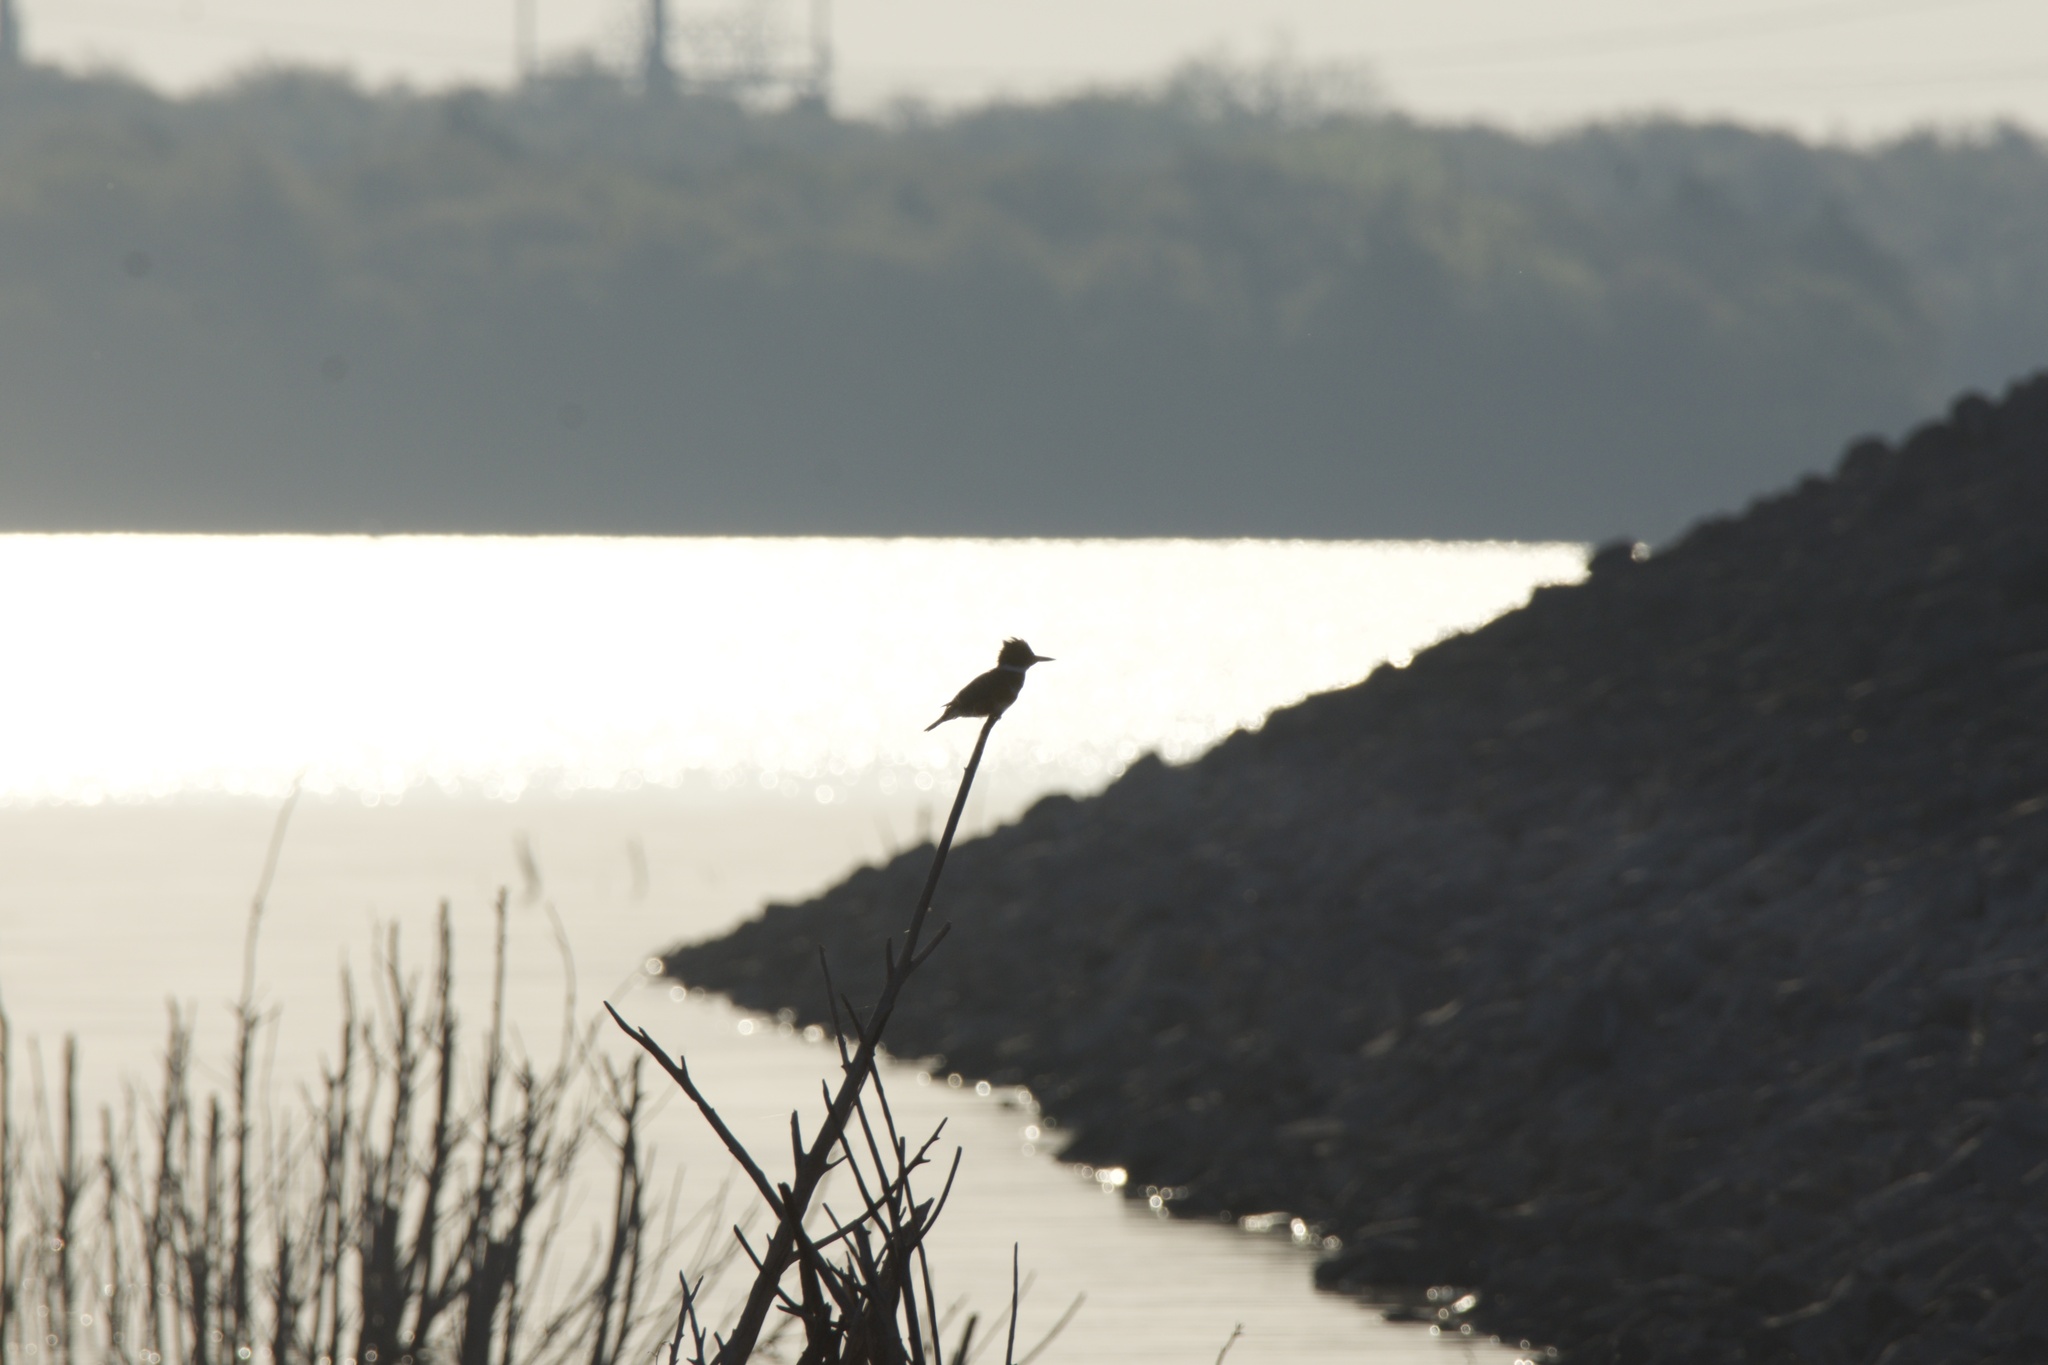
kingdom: Animalia
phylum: Chordata
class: Aves
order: Coraciiformes
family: Alcedinidae
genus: Megaceryle
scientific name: Megaceryle alcyon
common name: Belted kingfisher
